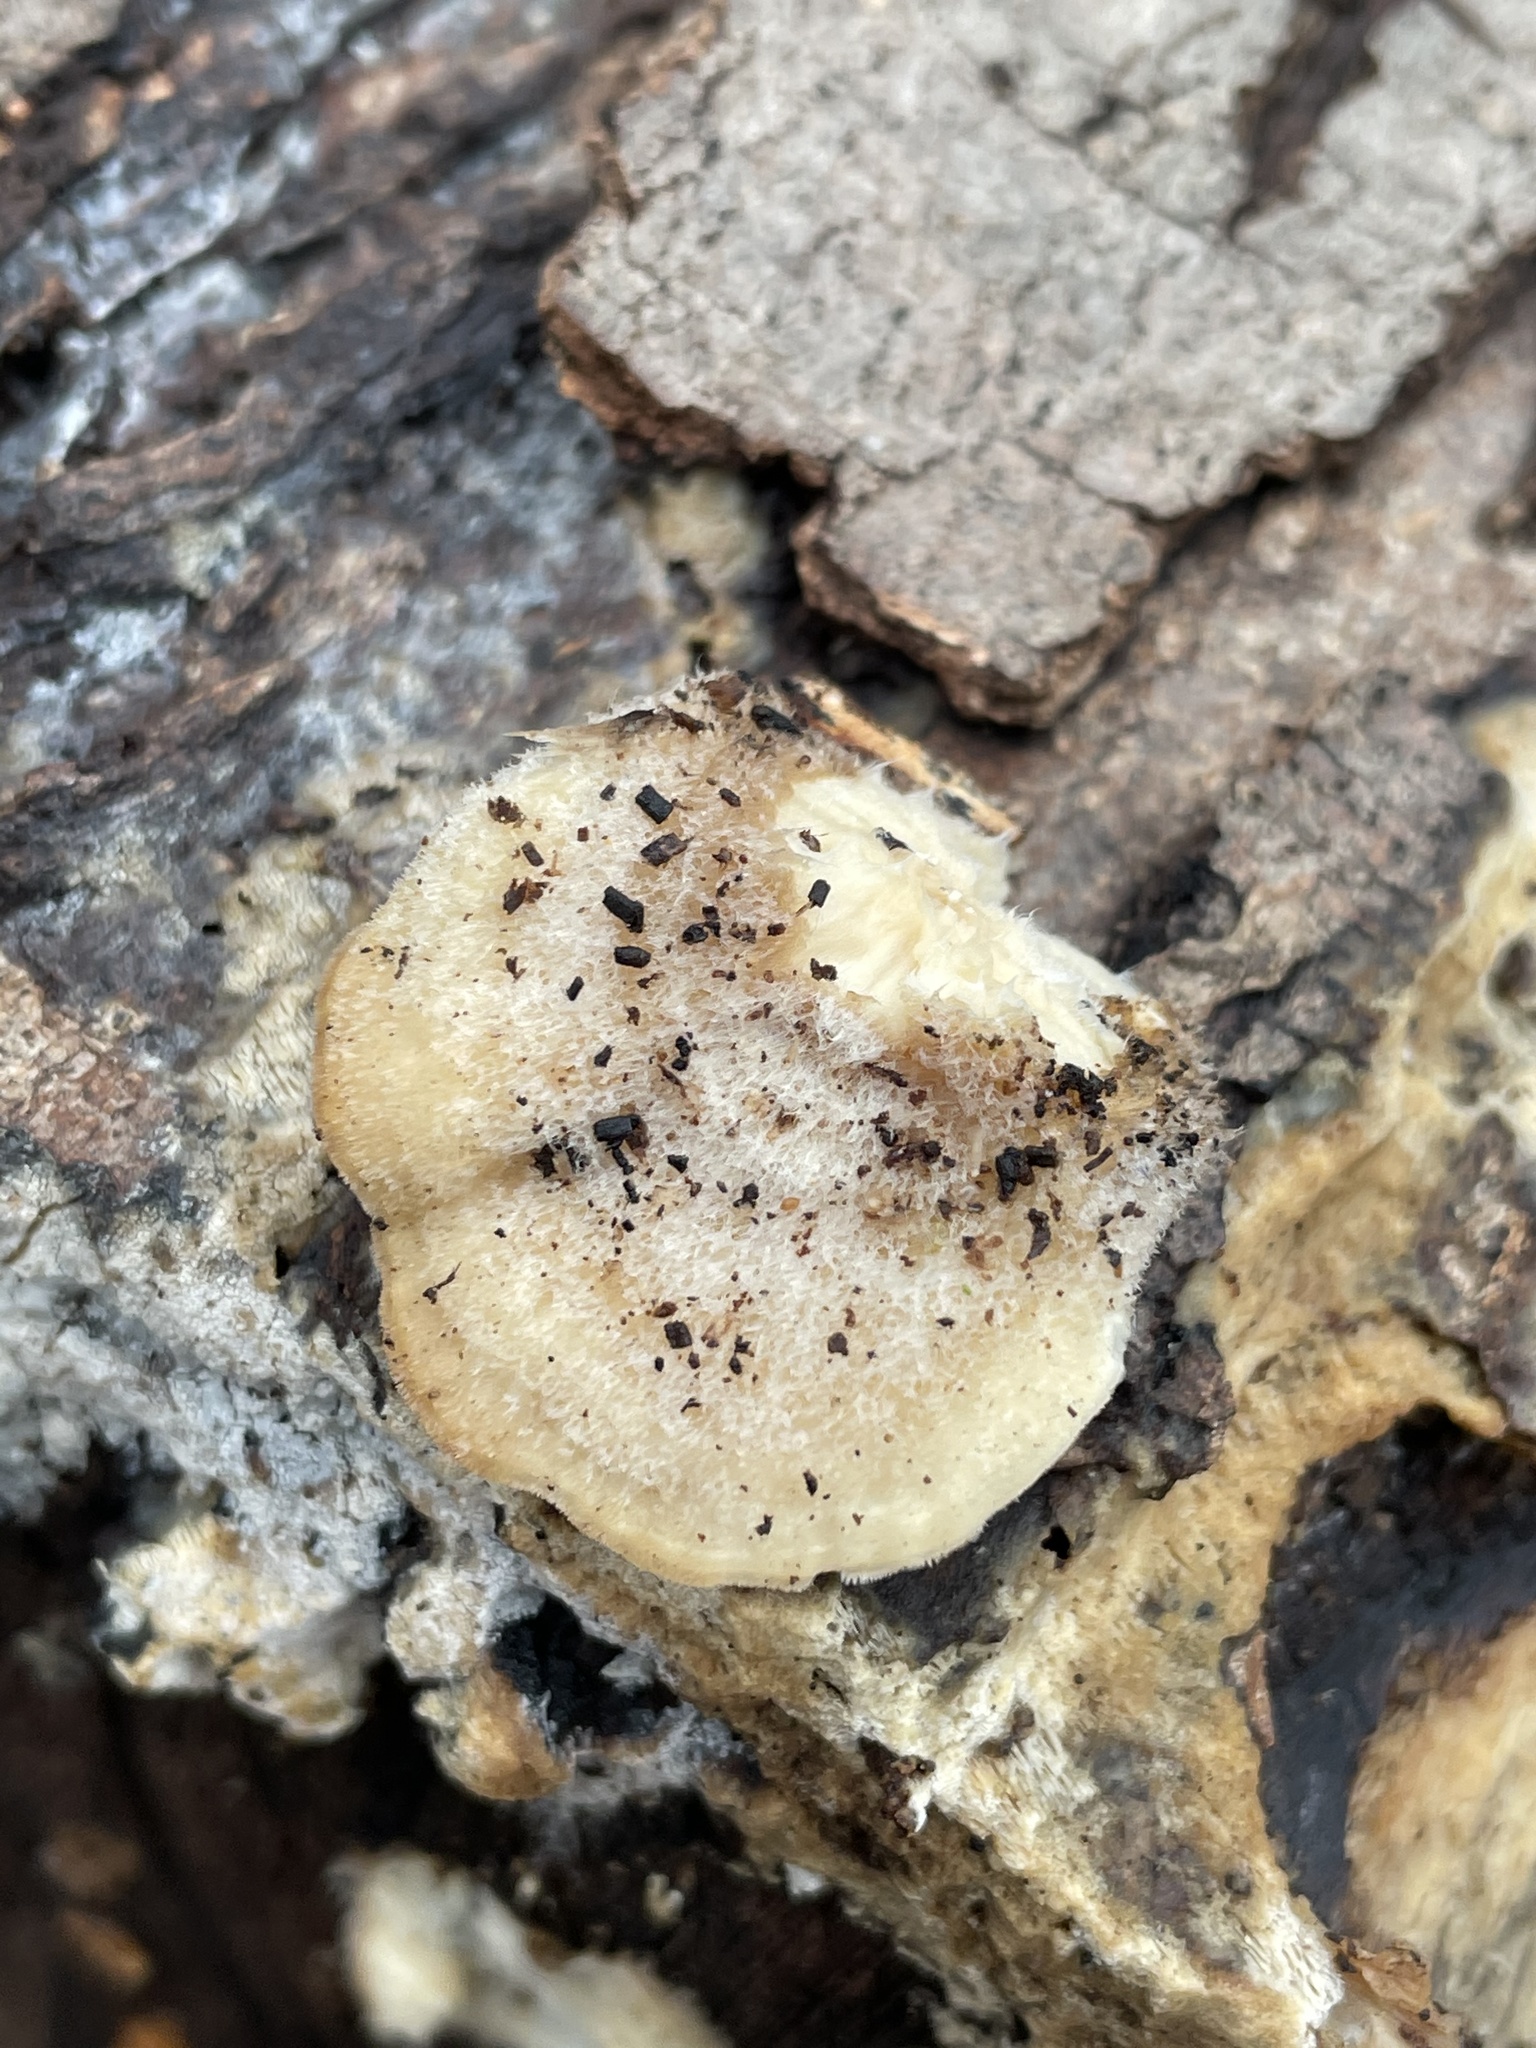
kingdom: Fungi
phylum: Basidiomycota
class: Agaricomycetes
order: Polyporales
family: Polyporaceae
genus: Lenzites
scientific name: Lenzites betulinus
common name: Birch mazegill
